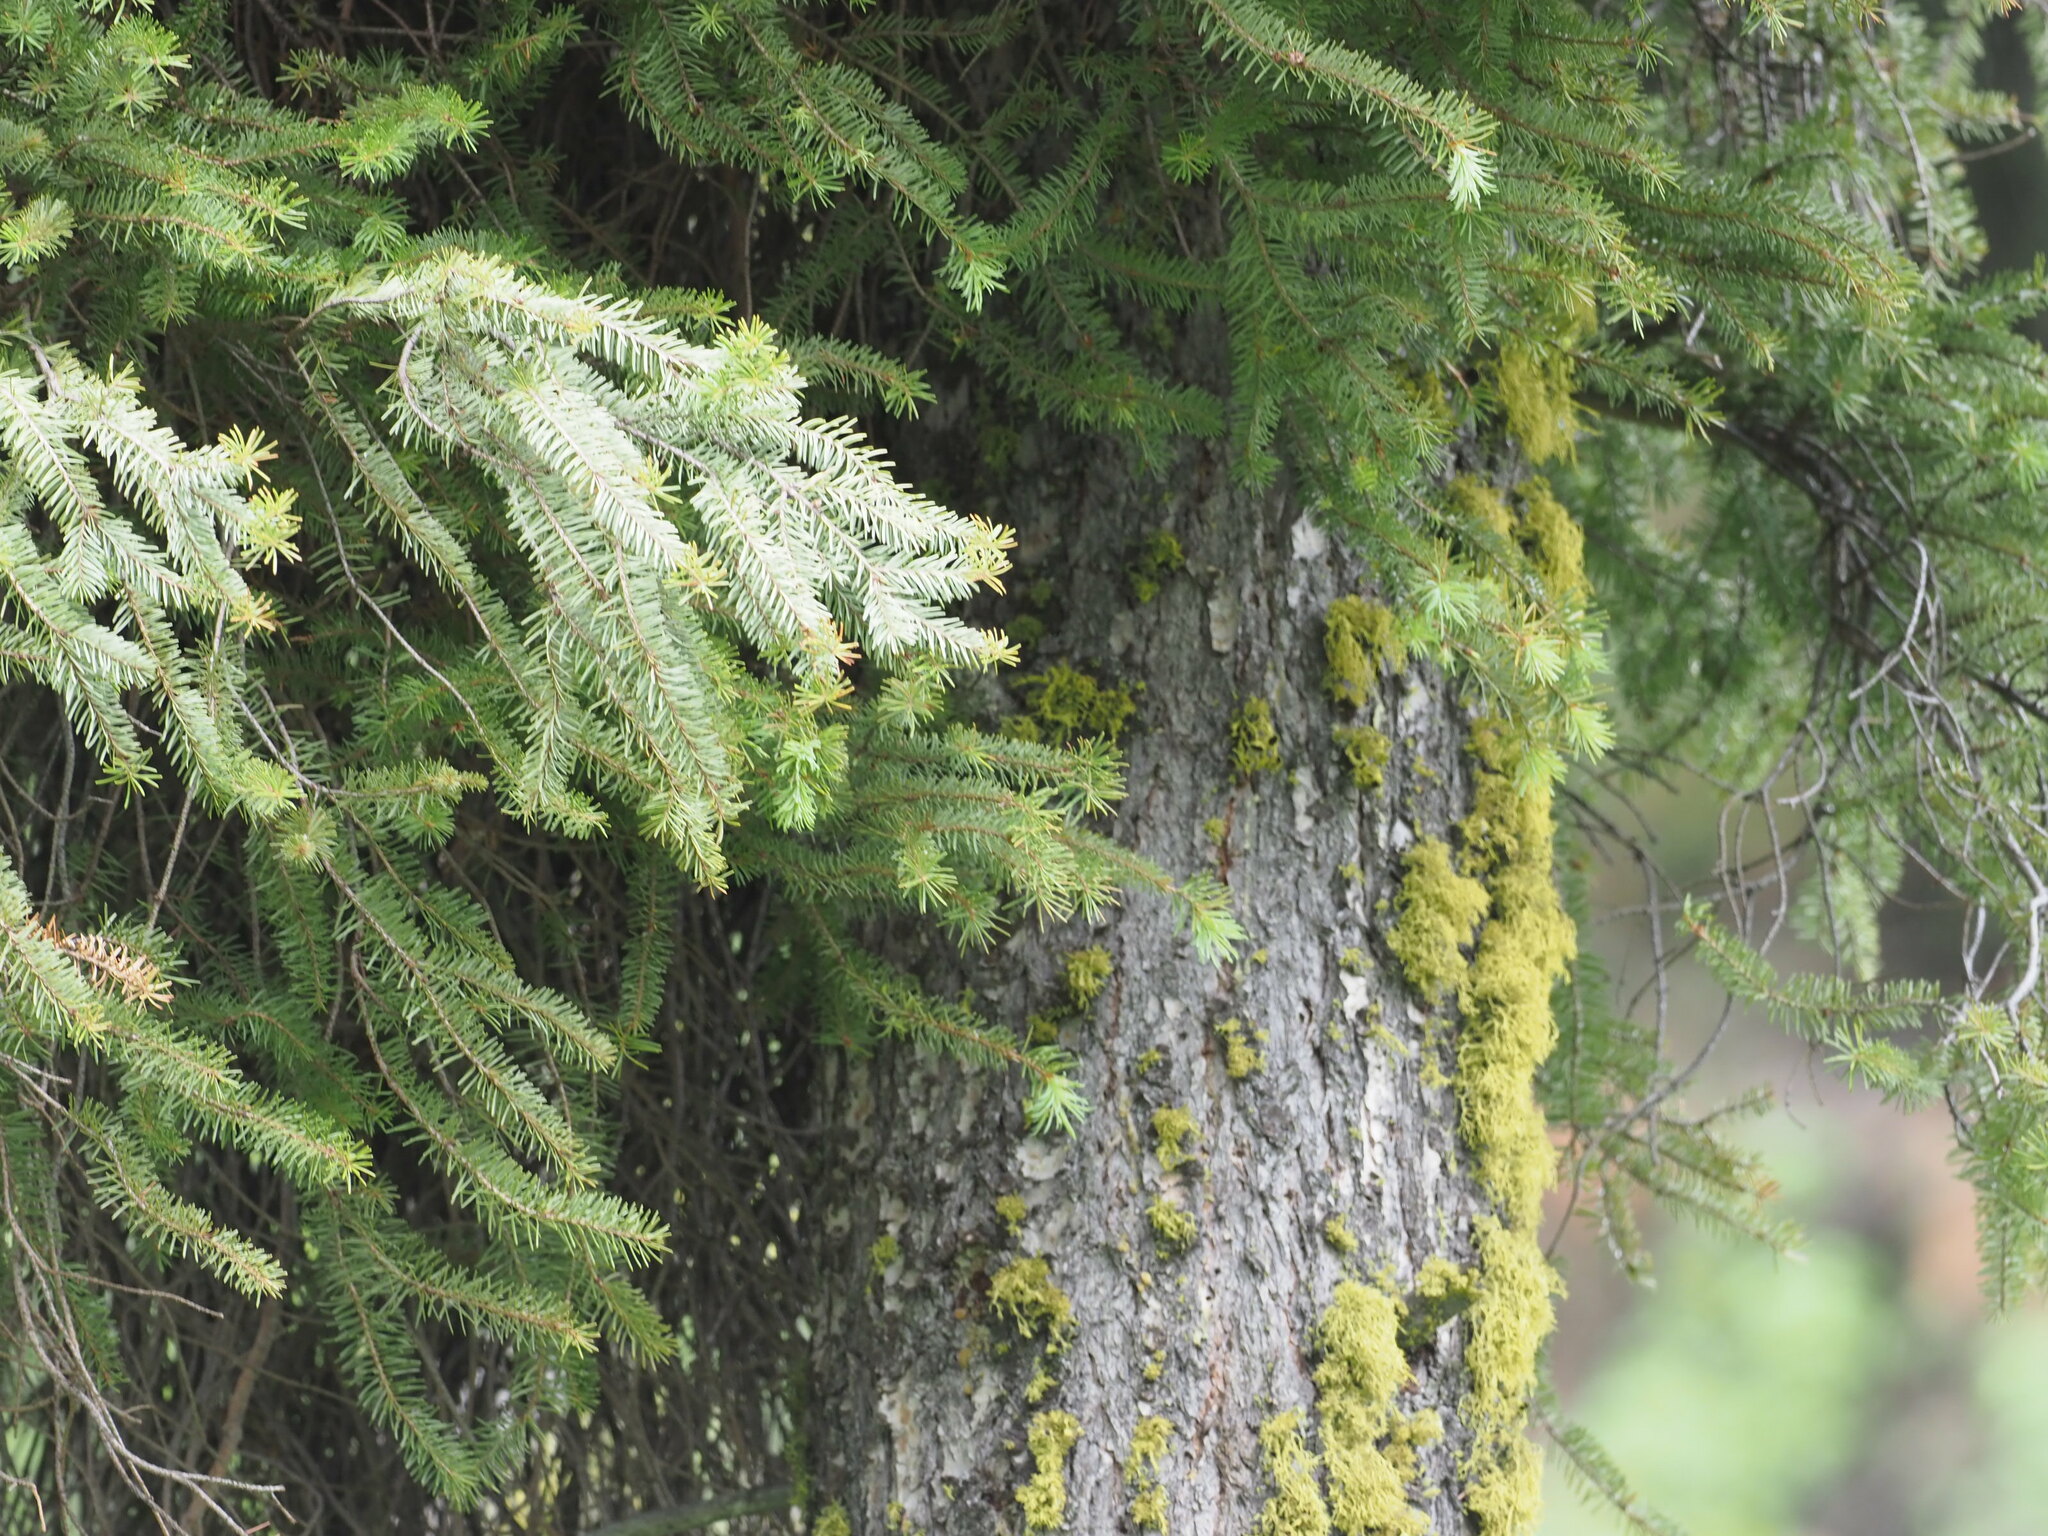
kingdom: Plantae
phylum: Tracheophyta
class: Pinopsida
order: Pinales
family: Pinaceae
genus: Pseudotsuga
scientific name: Pseudotsuga menziesii
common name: Douglas fir
